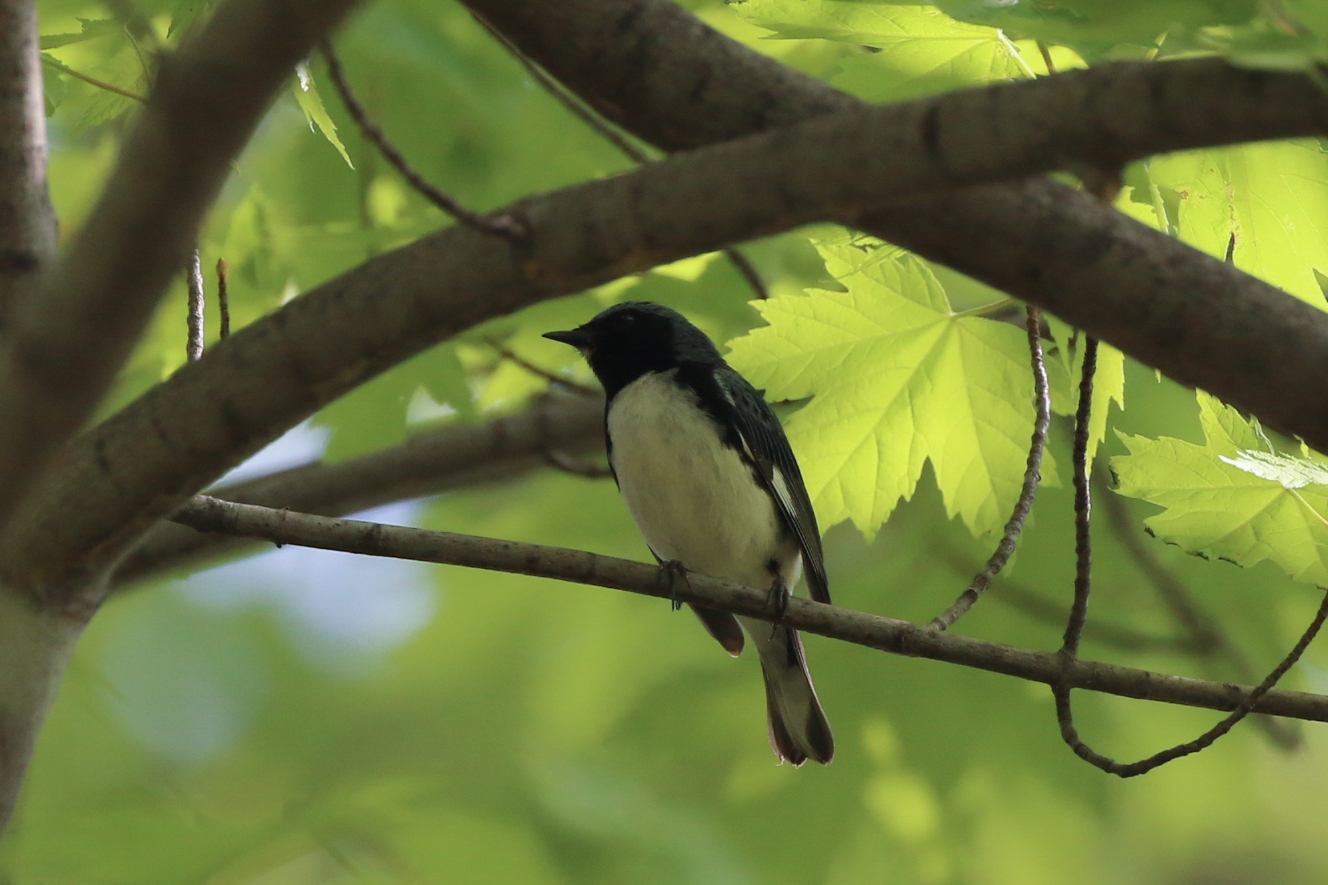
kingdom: Animalia
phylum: Chordata
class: Aves
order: Passeriformes
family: Parulidae
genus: Setophaga
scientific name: Setophaga caerulescens
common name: Black-throated blue warbler
